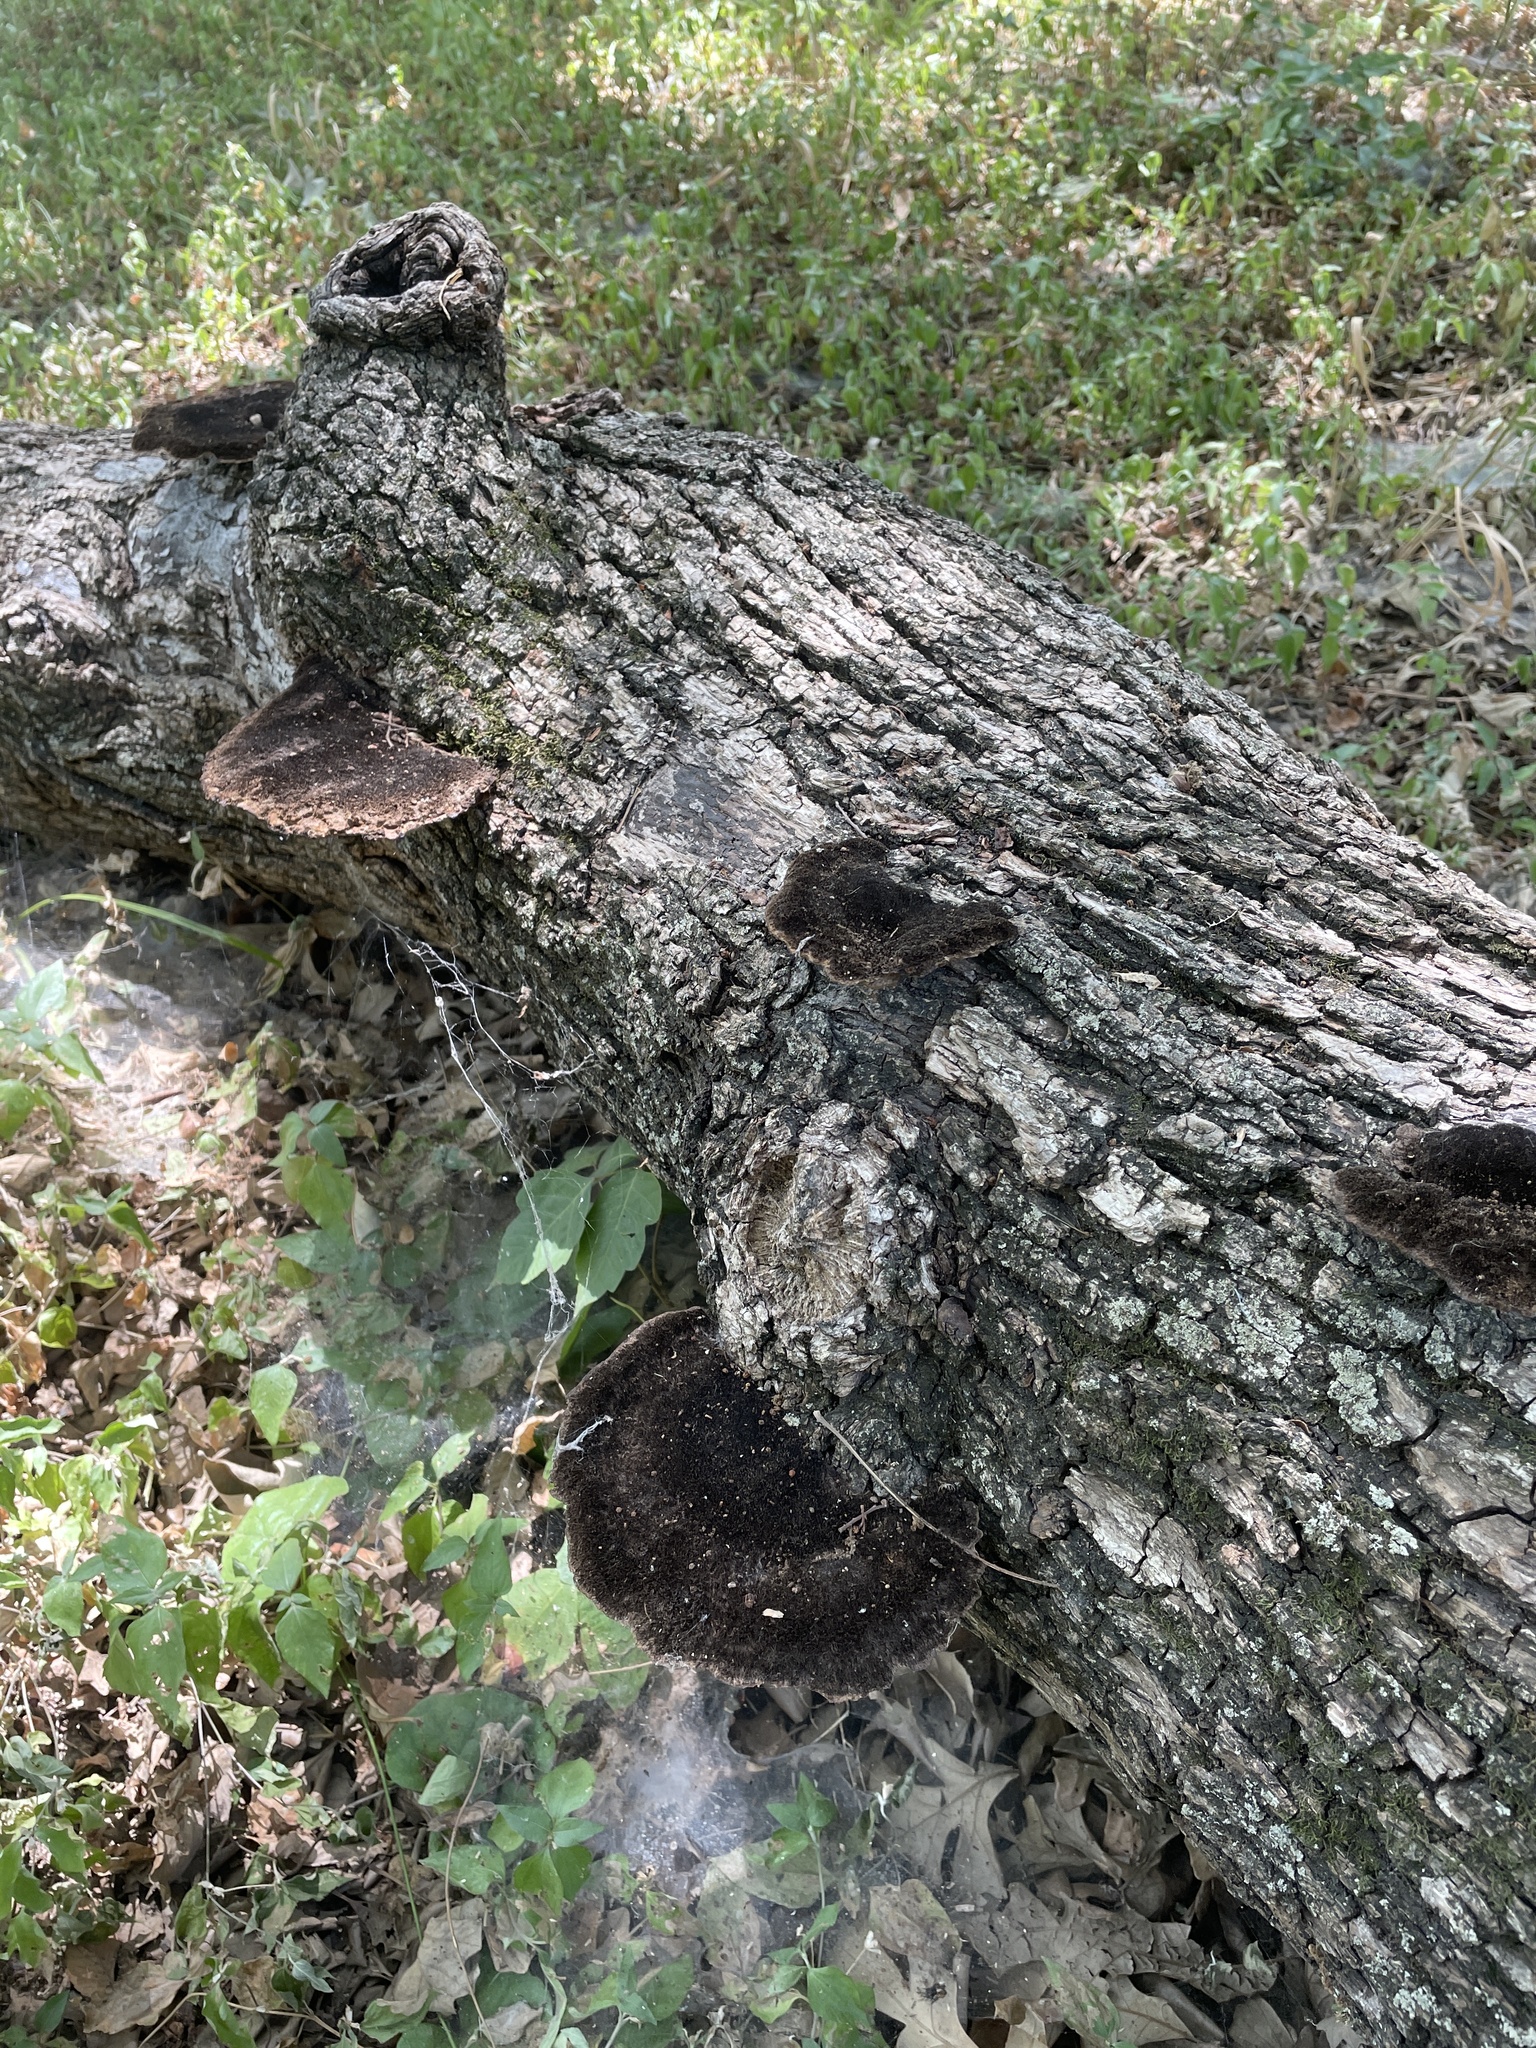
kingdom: Fungi
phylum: Basidiomycota
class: Agaricomycetes
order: Polyporales
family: Cerrenaceae
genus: Cerrena
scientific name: Cerrena hydnoides
